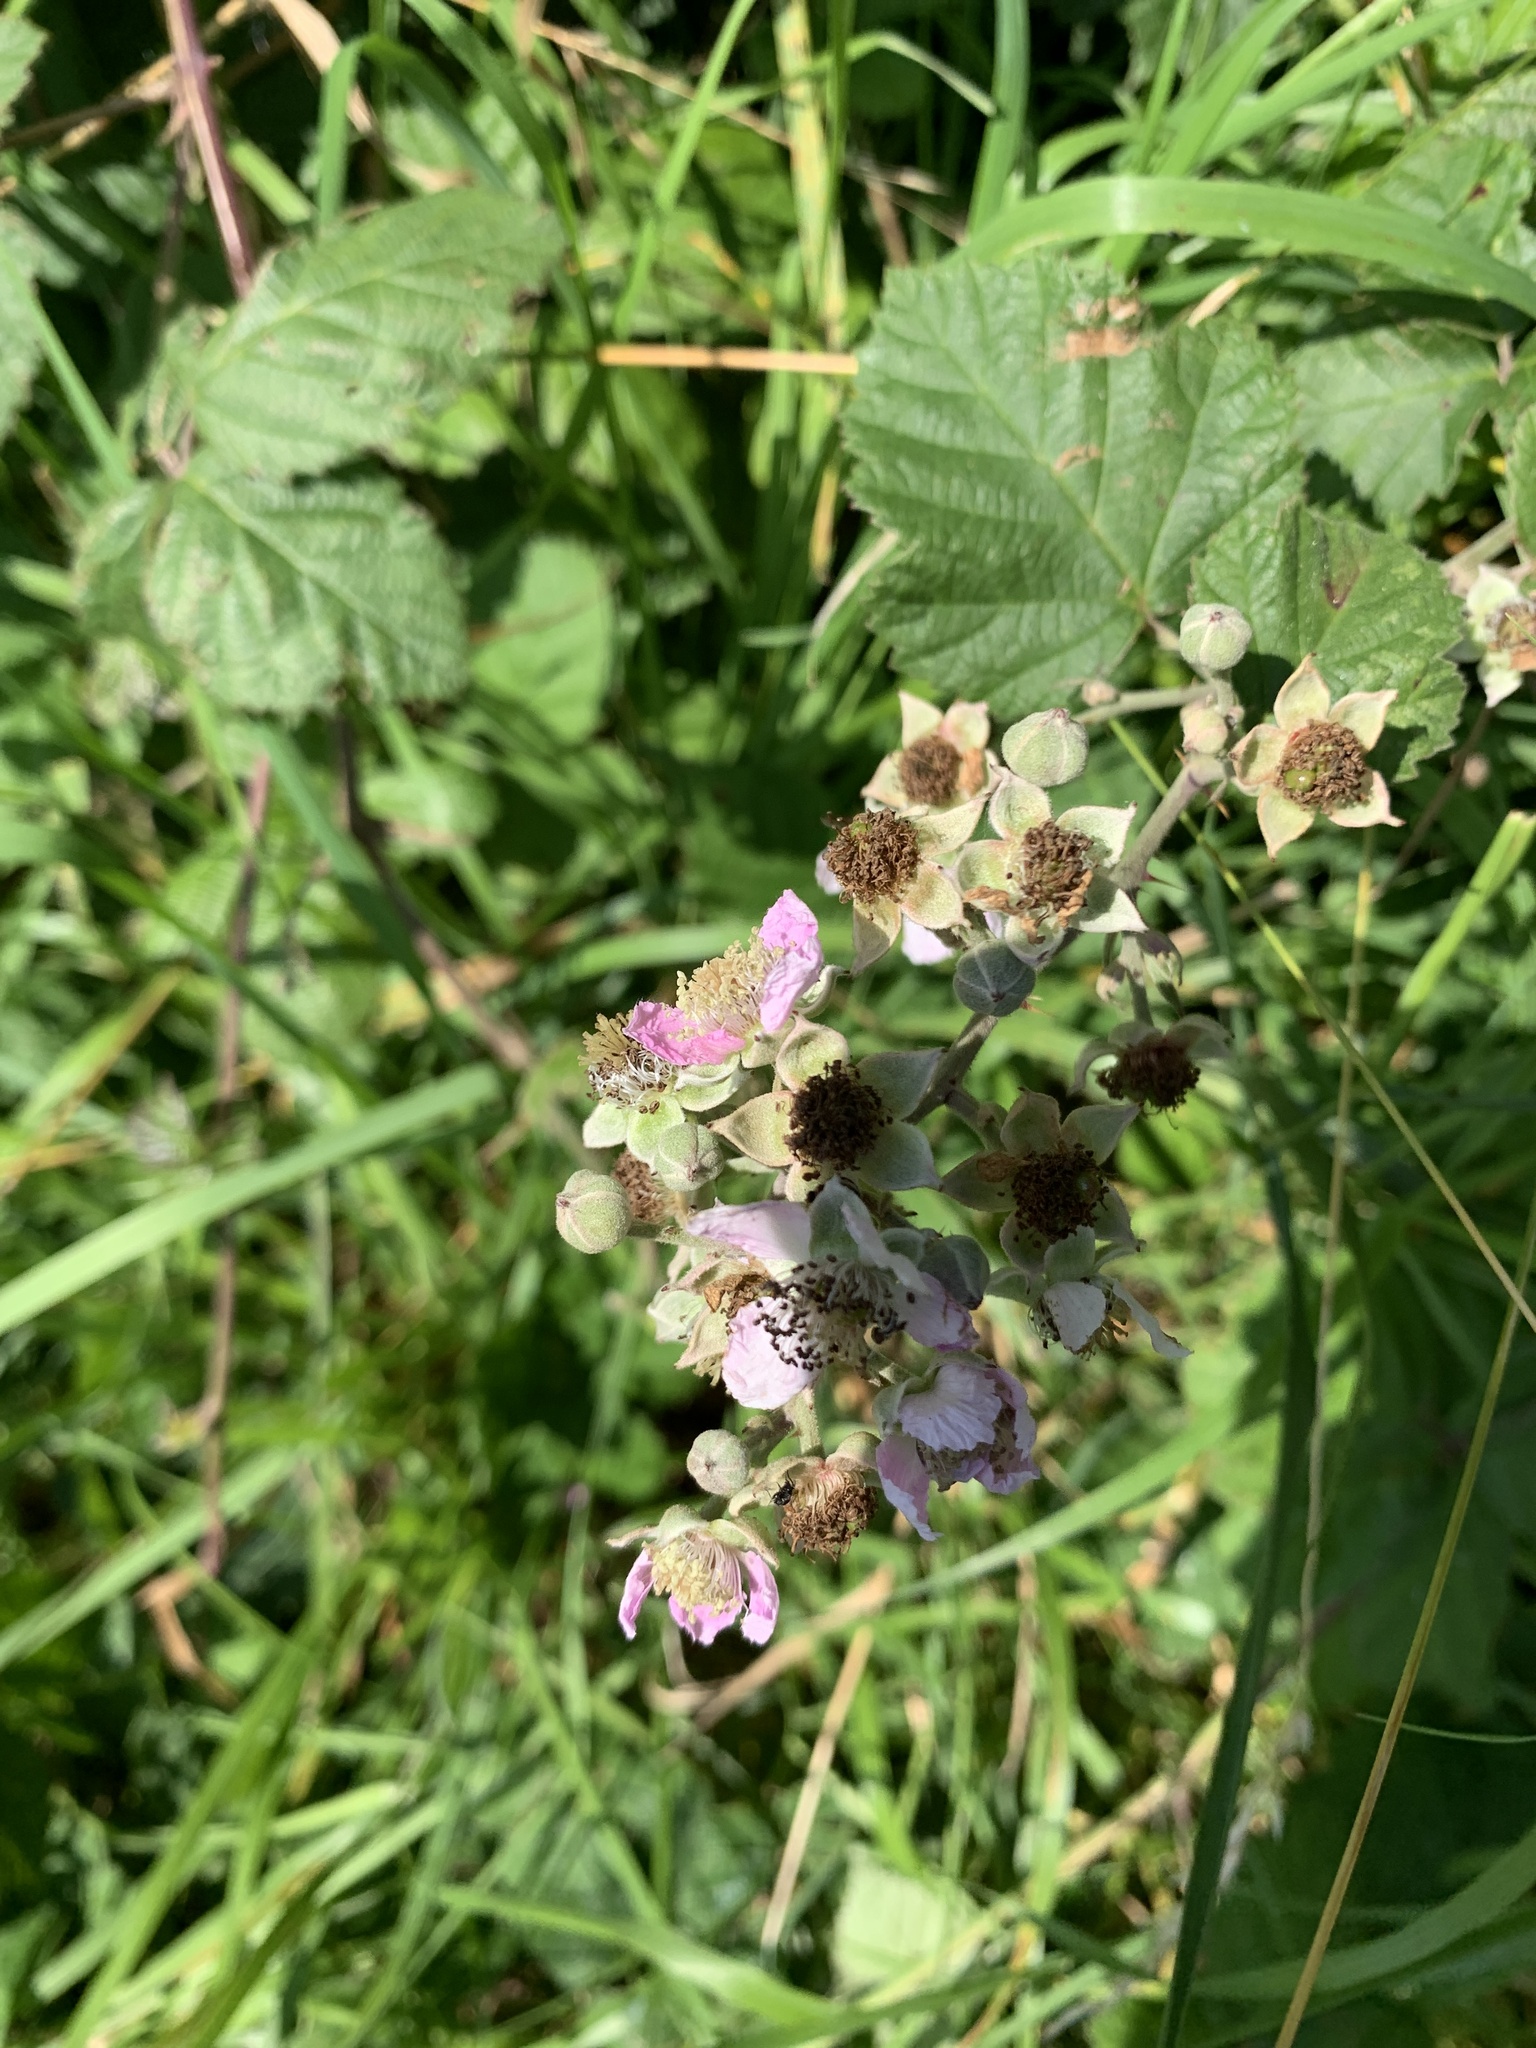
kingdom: Plantae
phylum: Tracheophyta
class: Magnoliopsida
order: Rosales
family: Rosaceae
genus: Rubus
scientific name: Rubus fruticosus
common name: Blackberry, bramble
